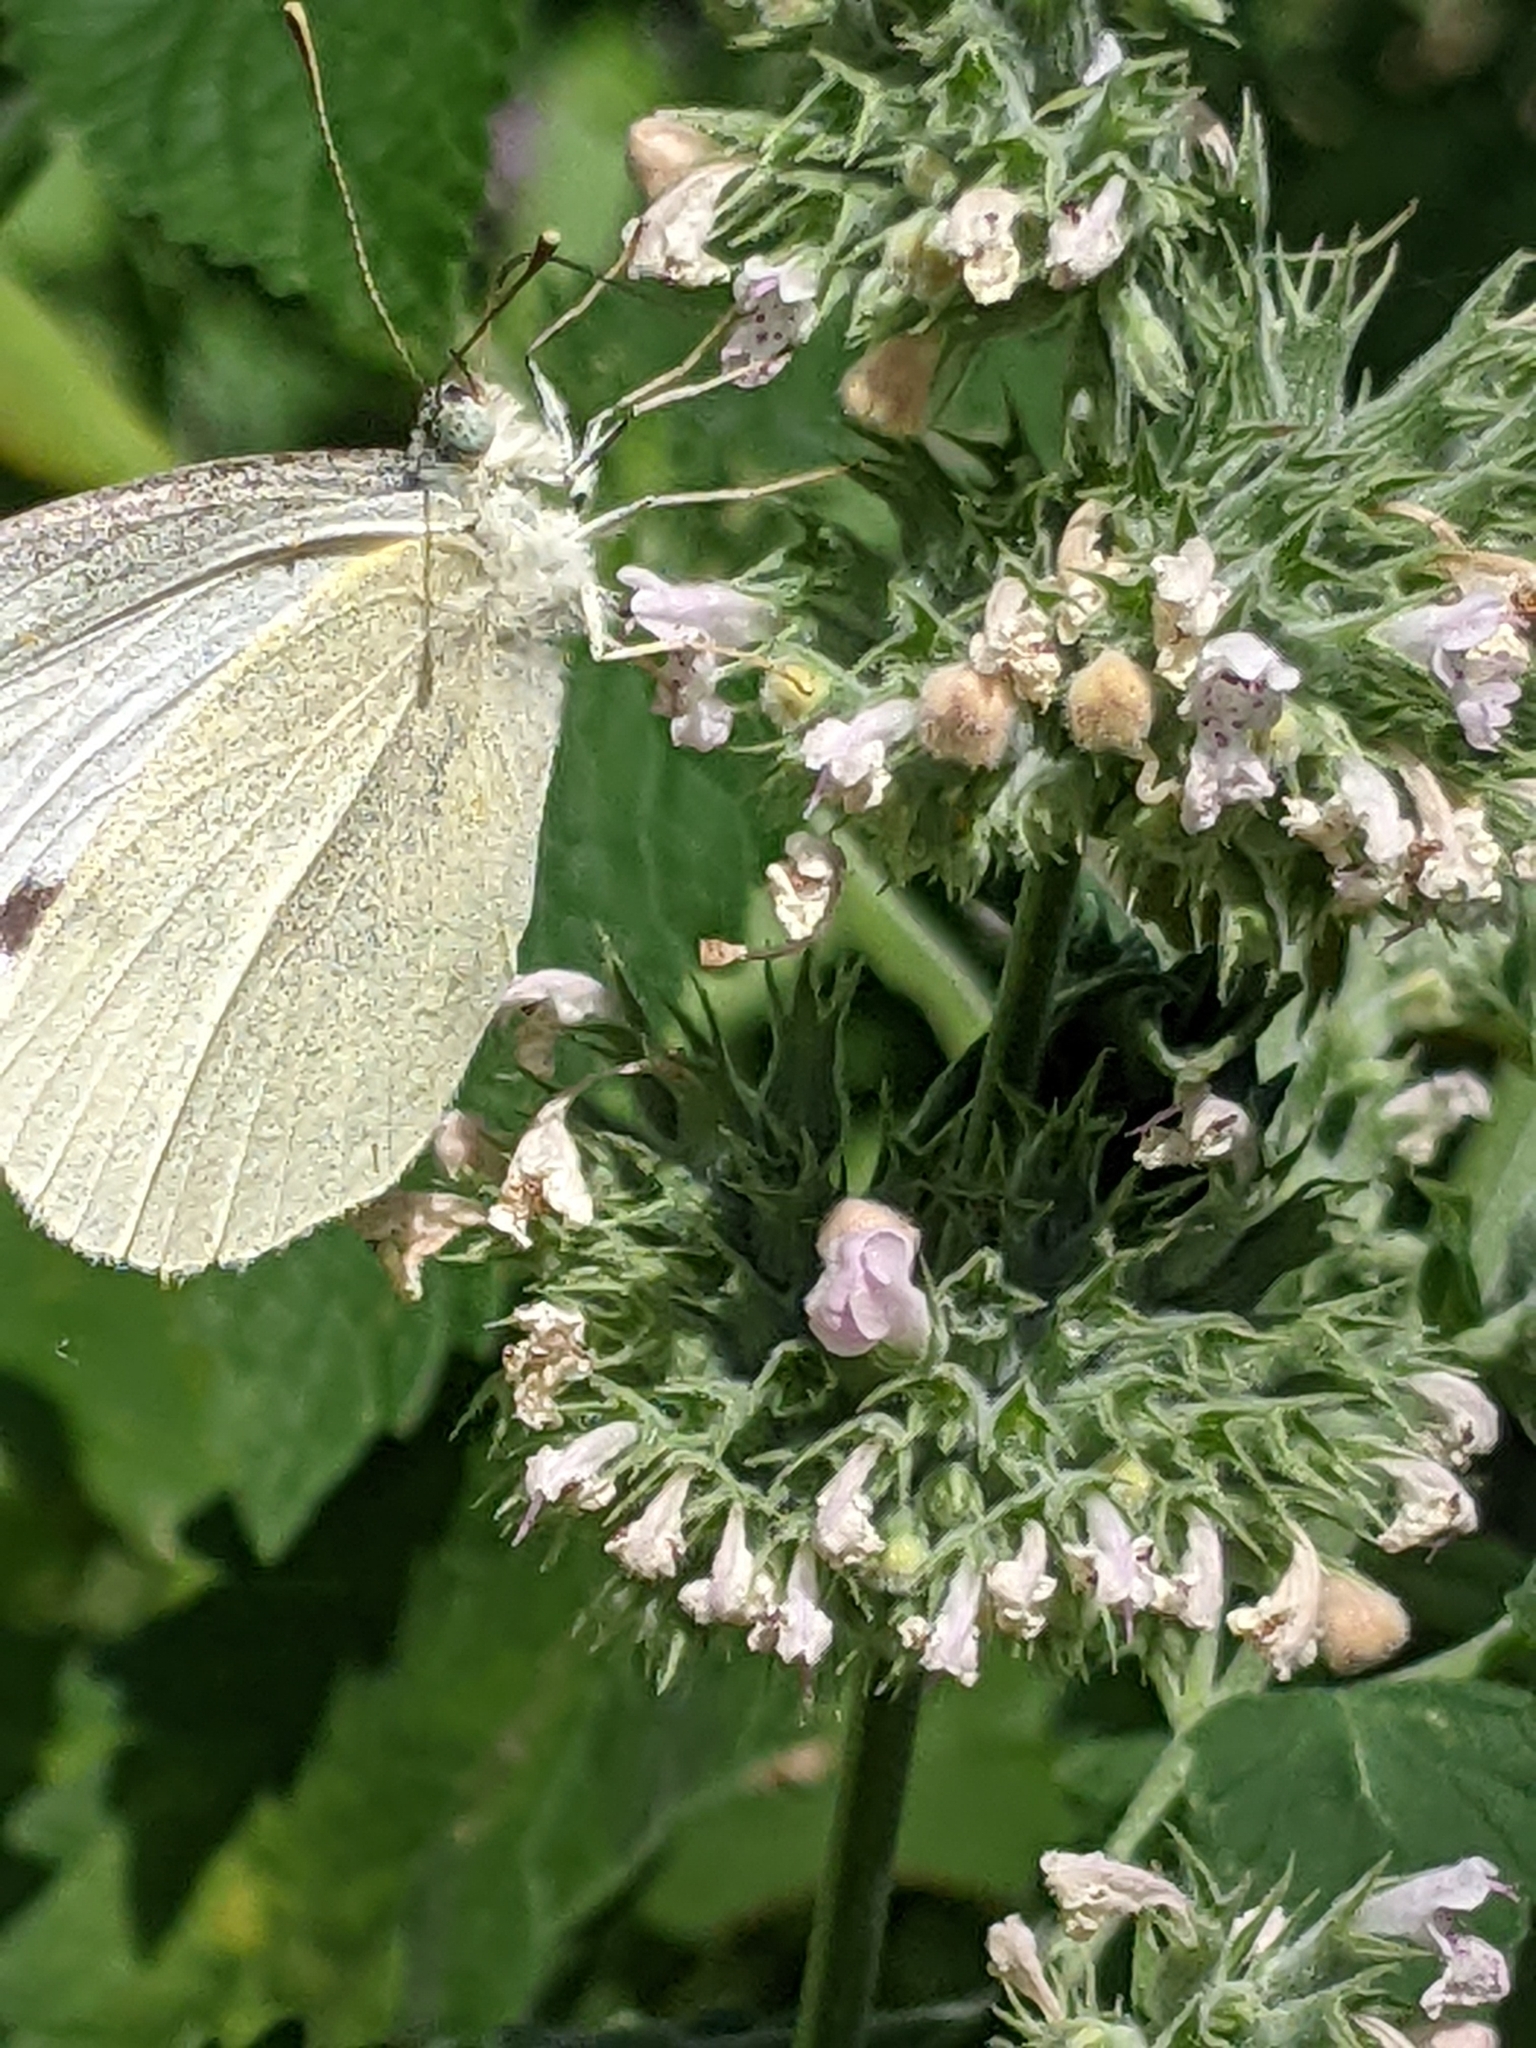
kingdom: Animalia
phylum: Arthropoda
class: Insecta
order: Lepidoptera
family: Pieridae
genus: Pieris
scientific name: Pieris rapae
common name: Small white
